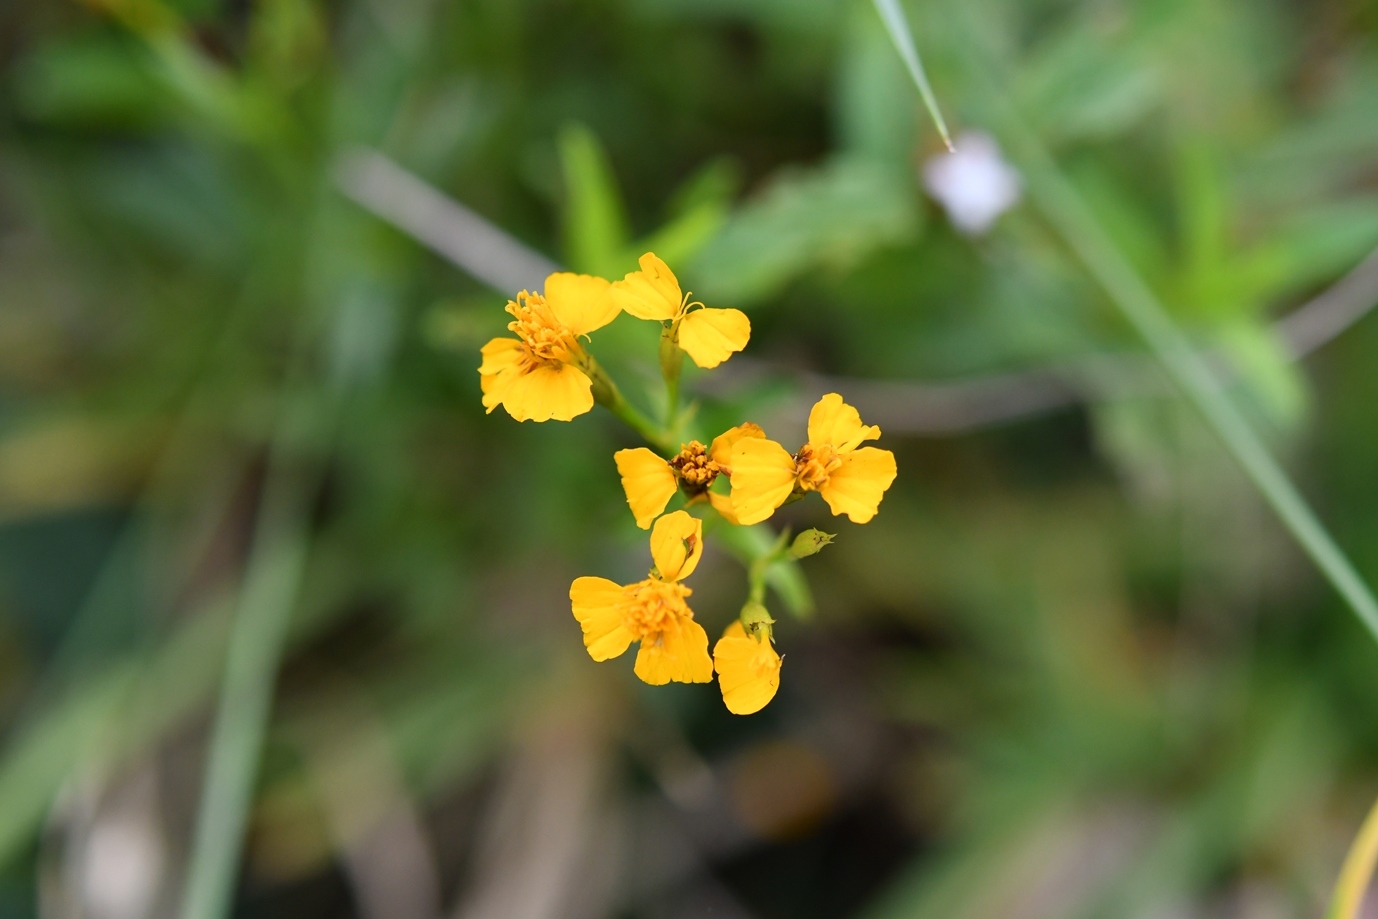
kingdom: Plantae
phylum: Tracheophyta
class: Magnoliopsida
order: Asterales
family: Asteraceae
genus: Tagetes
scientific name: Tagetes lucida
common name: Sweetscented marigold
